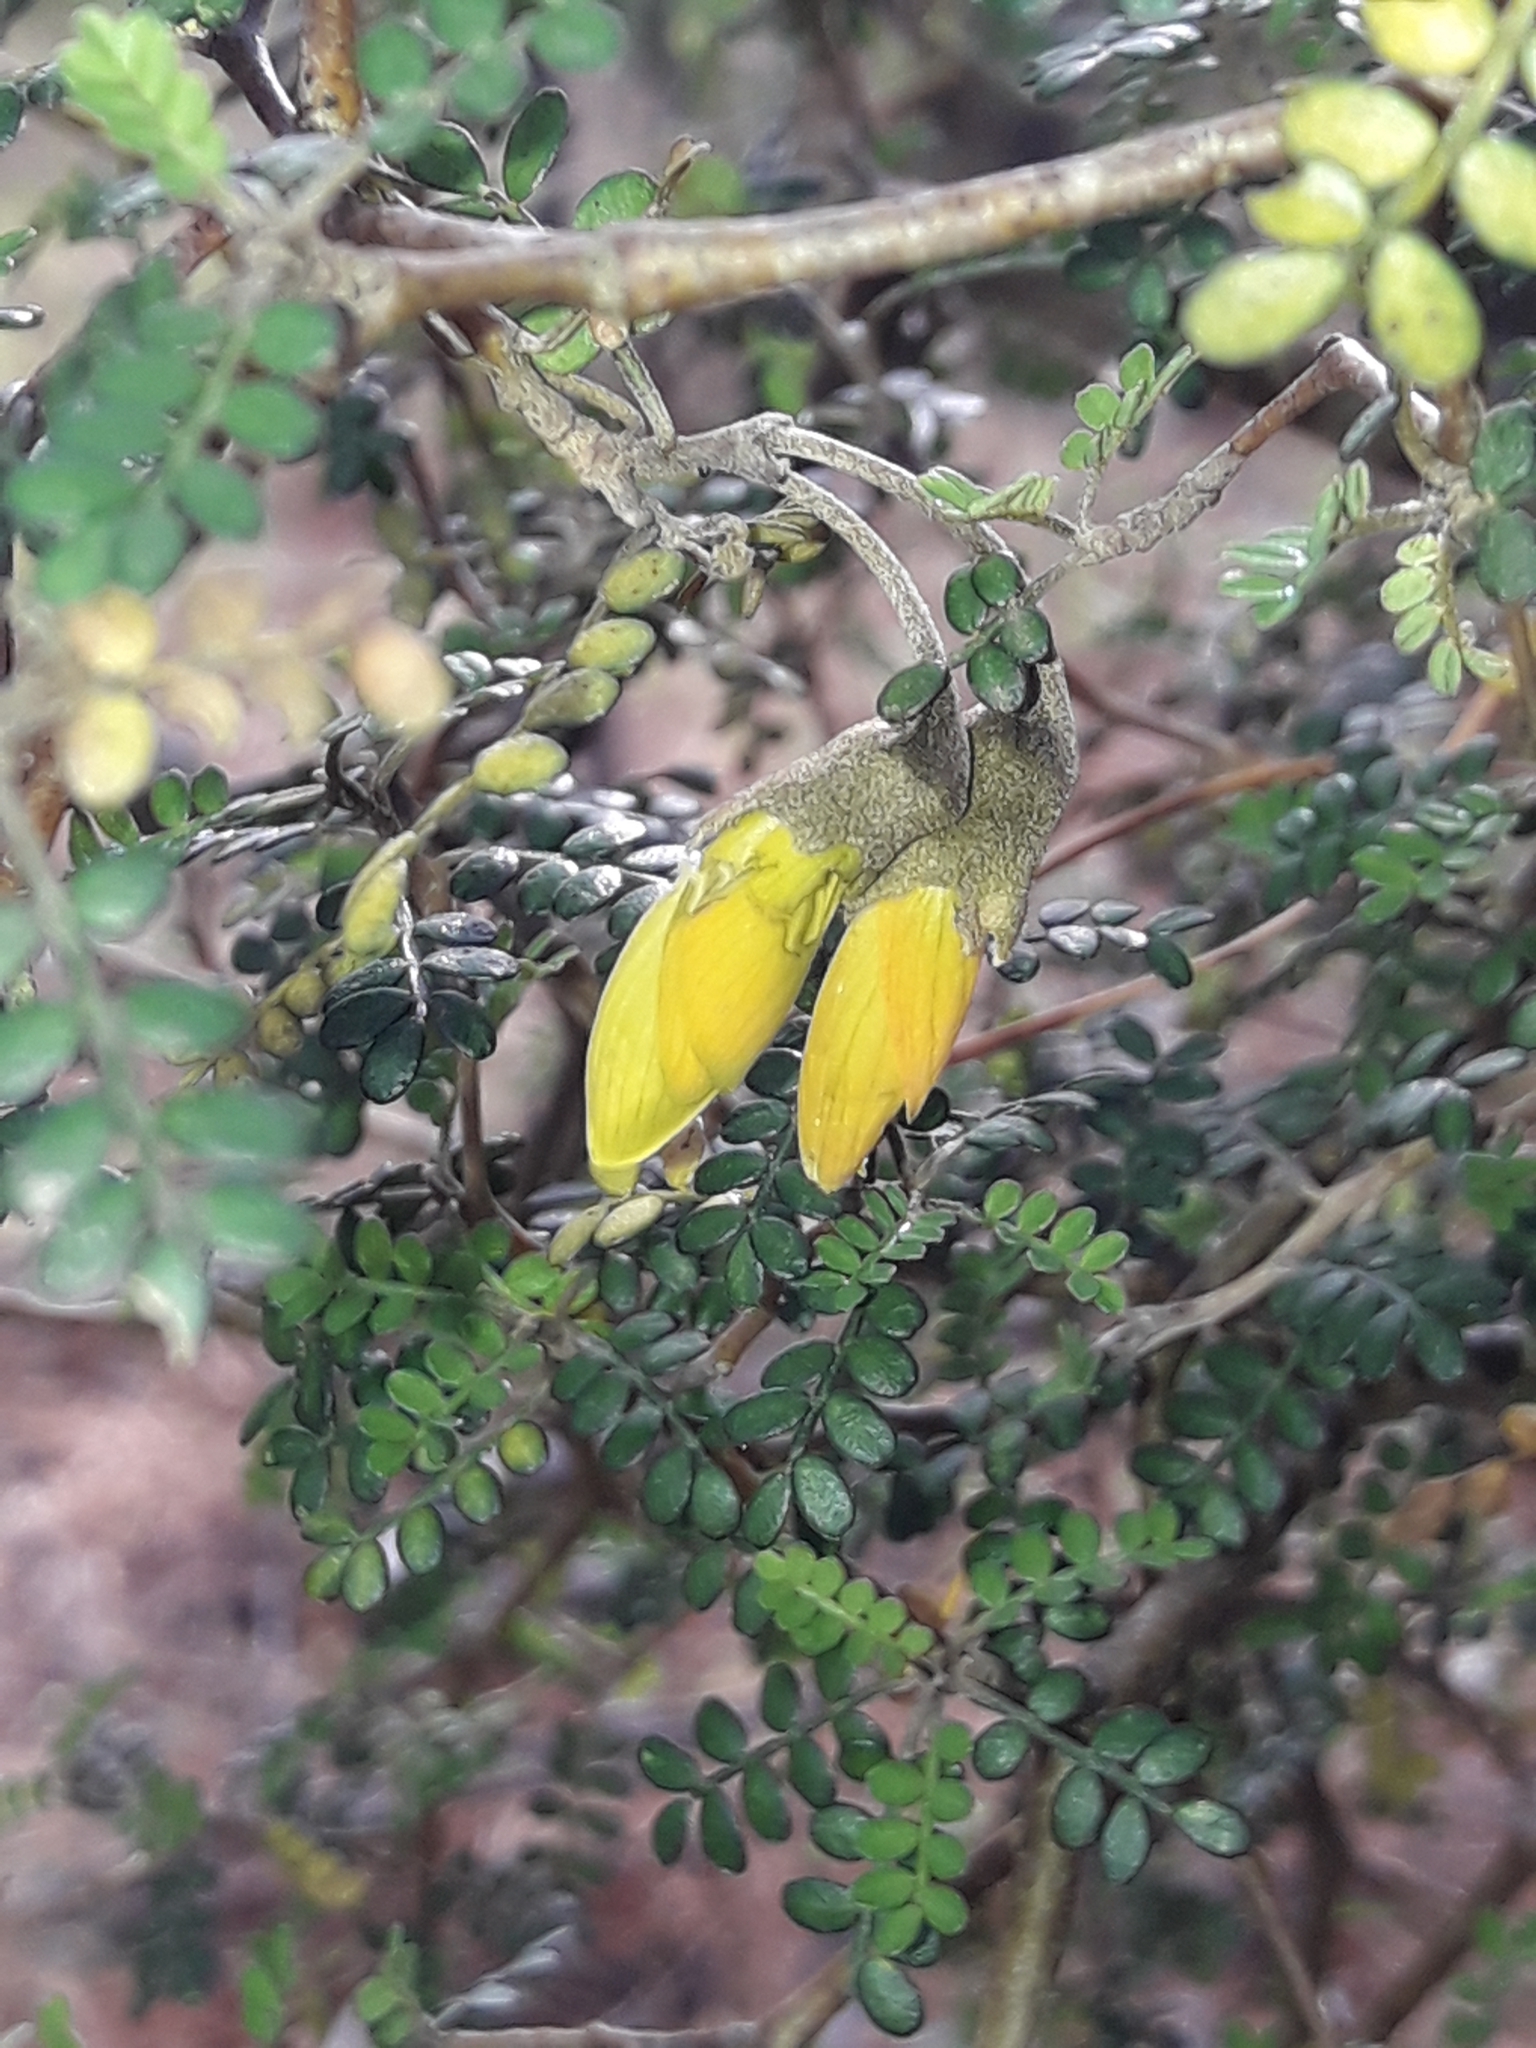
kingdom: Plantae
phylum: Tracheophyta
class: Magnoliopsida
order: Fabales
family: Fabaceae
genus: Sophora
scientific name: Sophora prostrata
